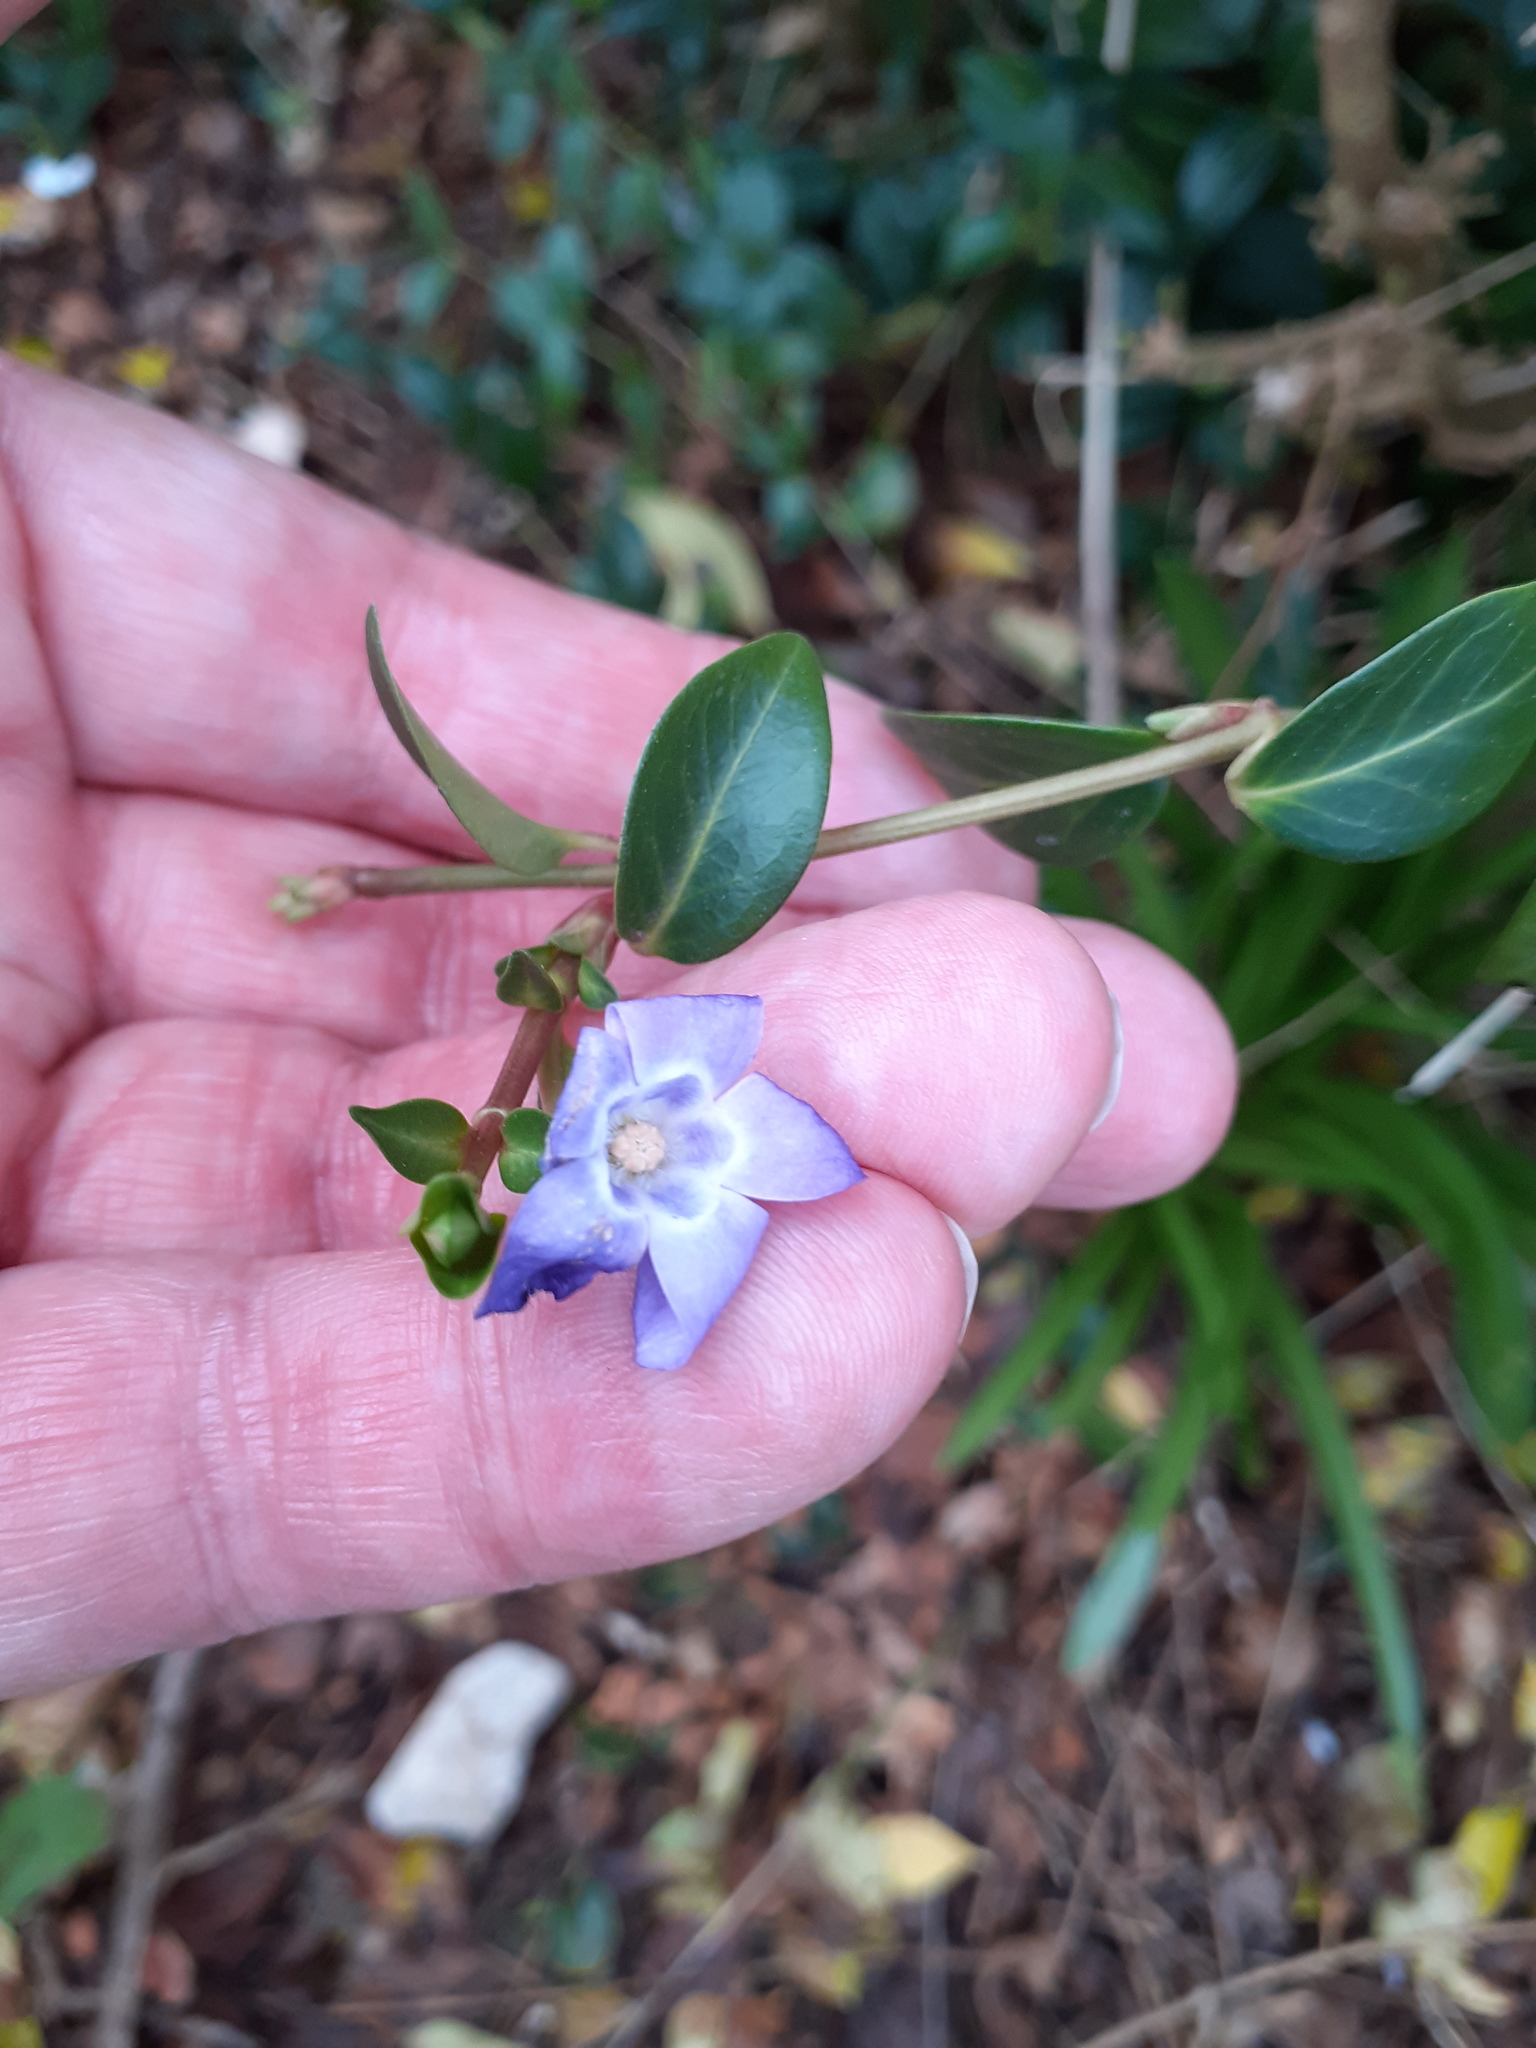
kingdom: Plantae
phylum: Tracheophyta
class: Magnoliopsida
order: Gentianales
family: Apocynaceae
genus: Vinca
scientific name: Vinca minor
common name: Lesser periwinkle
